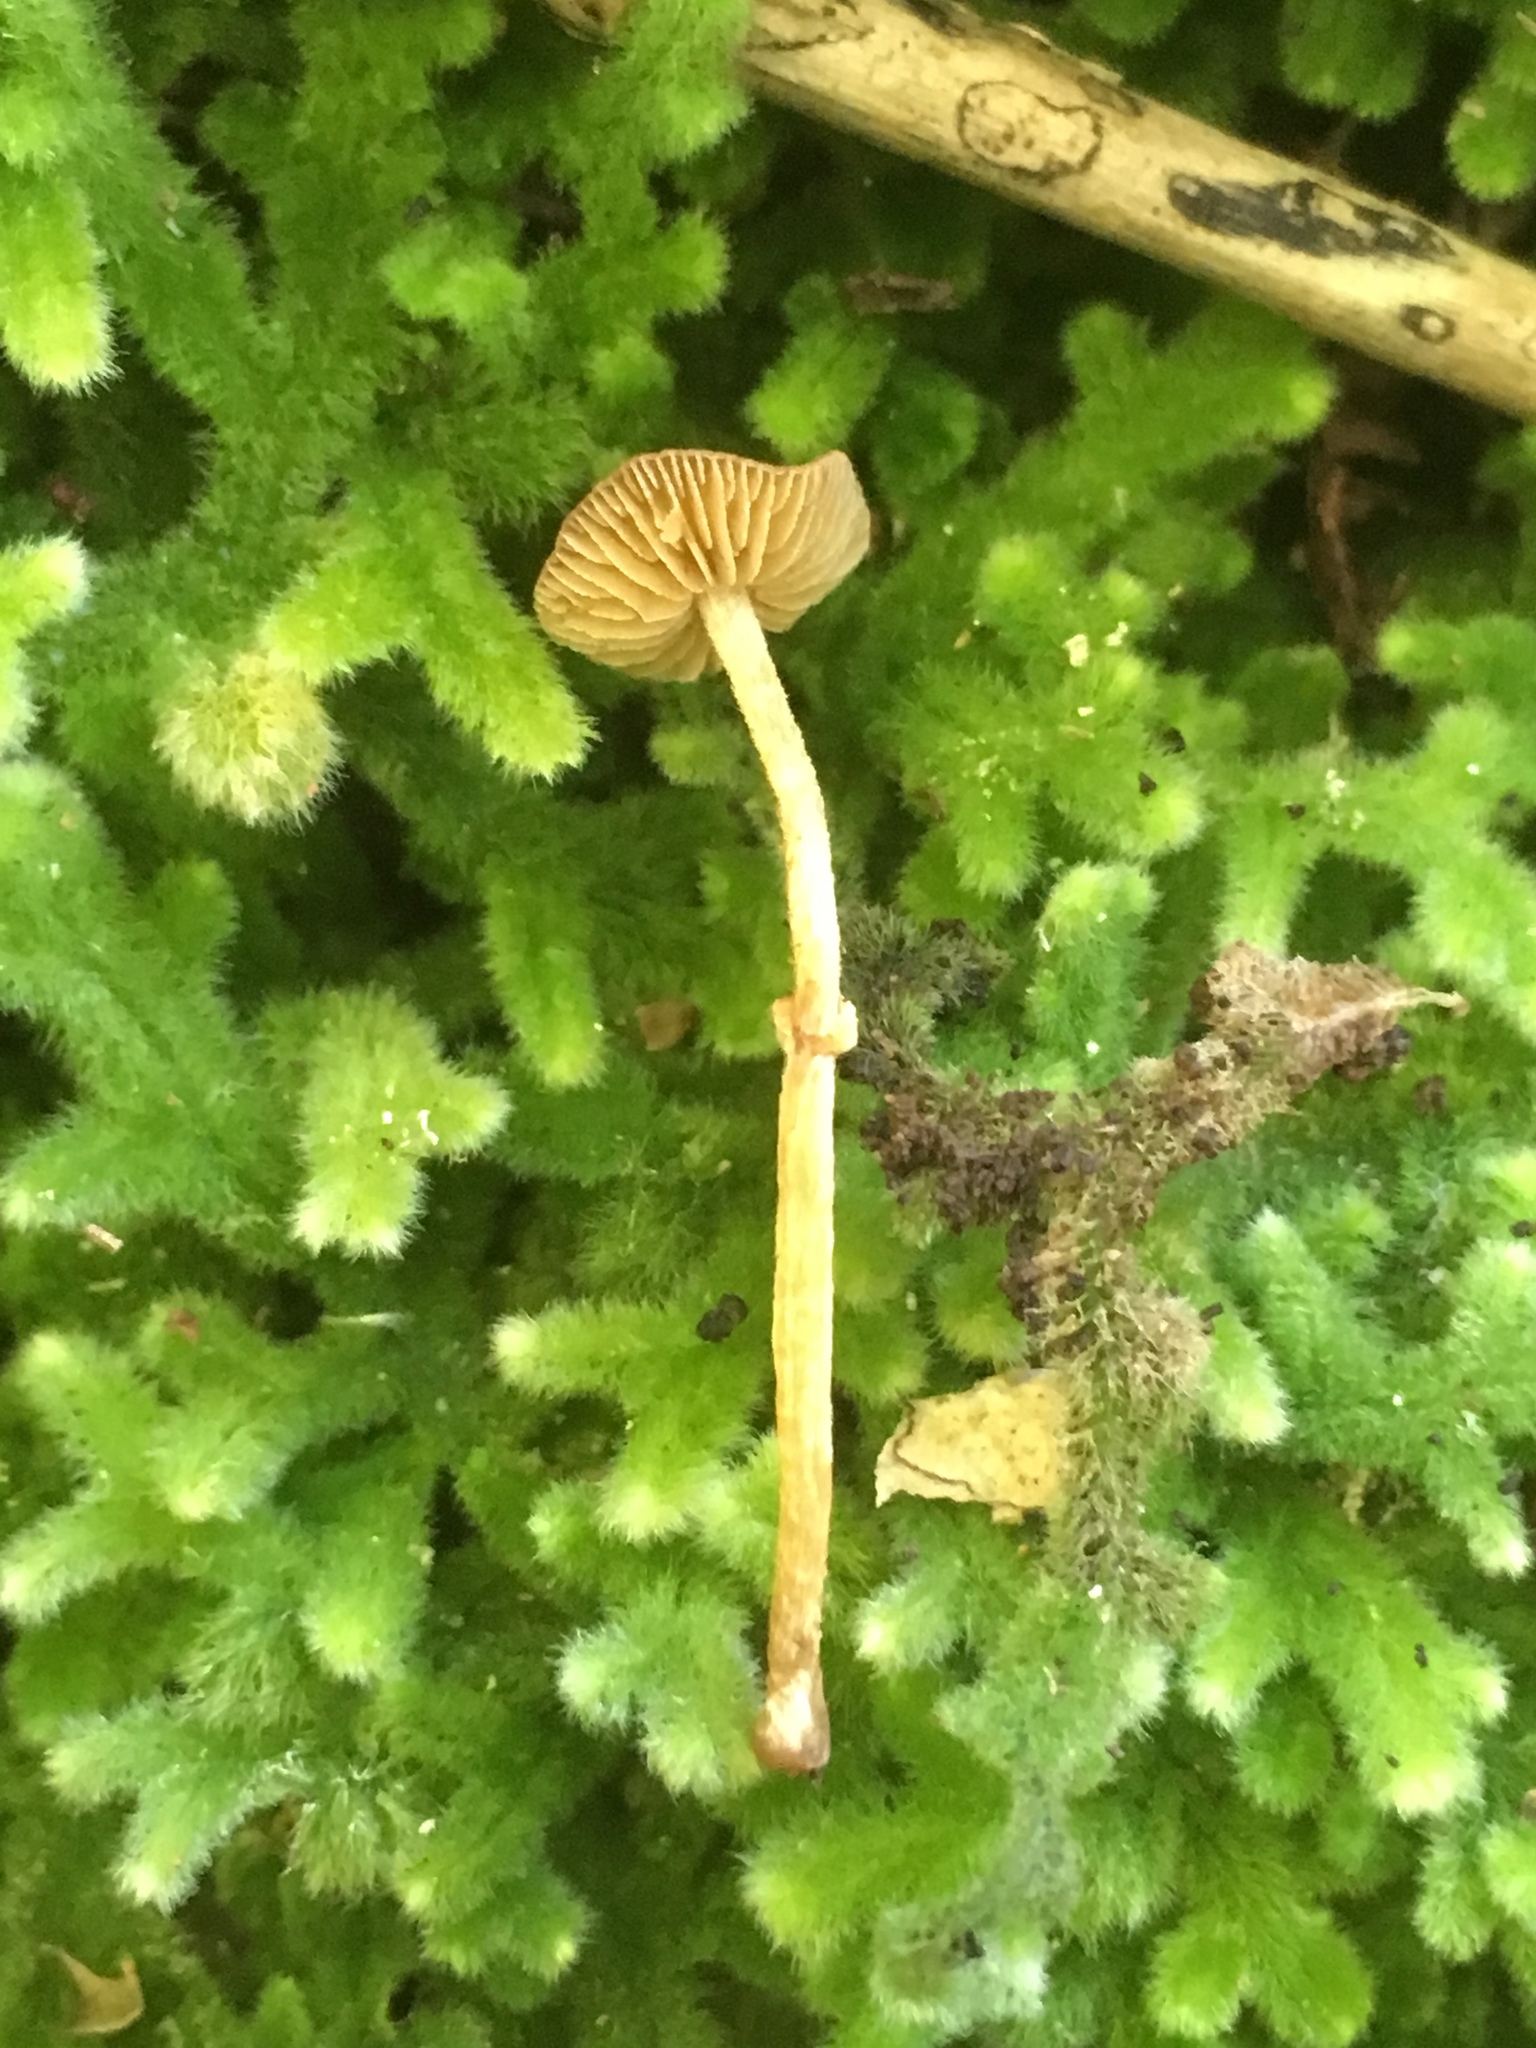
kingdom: Fungi
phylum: Basidiomycota
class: Agaricomycetes
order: Agaricales
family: Bolbitiaceae
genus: Pholiotina
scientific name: Pholiotina gracilenta
